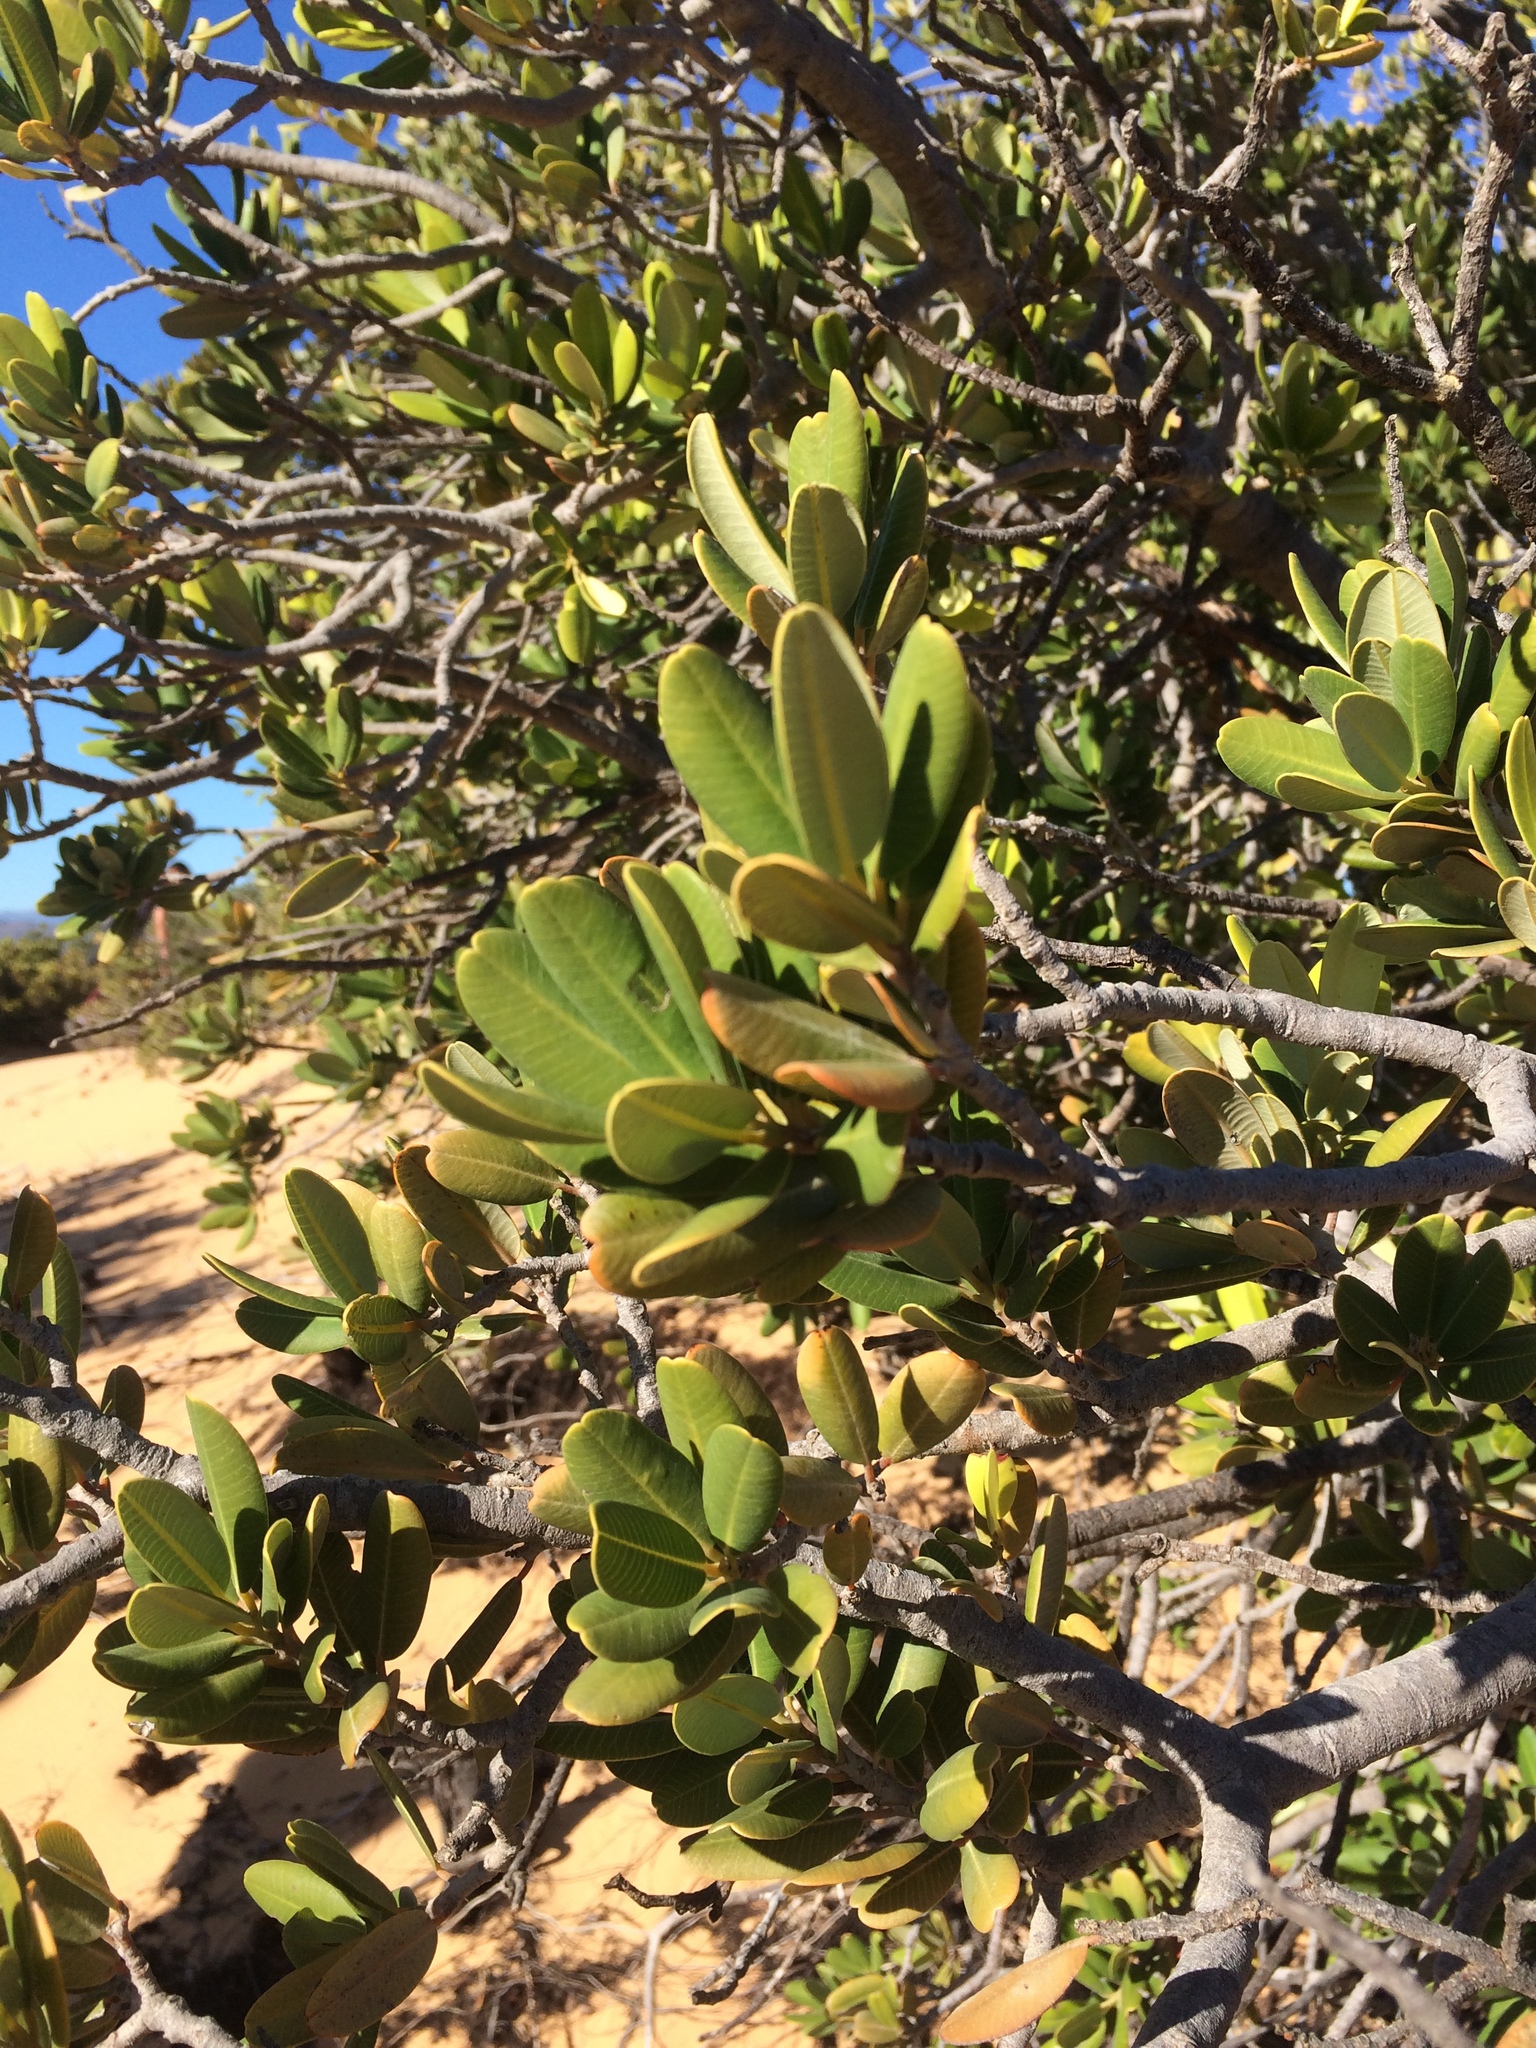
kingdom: Plantae
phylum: Tracheophyta
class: Magnoliopsida
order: Sapindales
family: Anacardiaceae
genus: Heeria
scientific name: Heeria argentea
